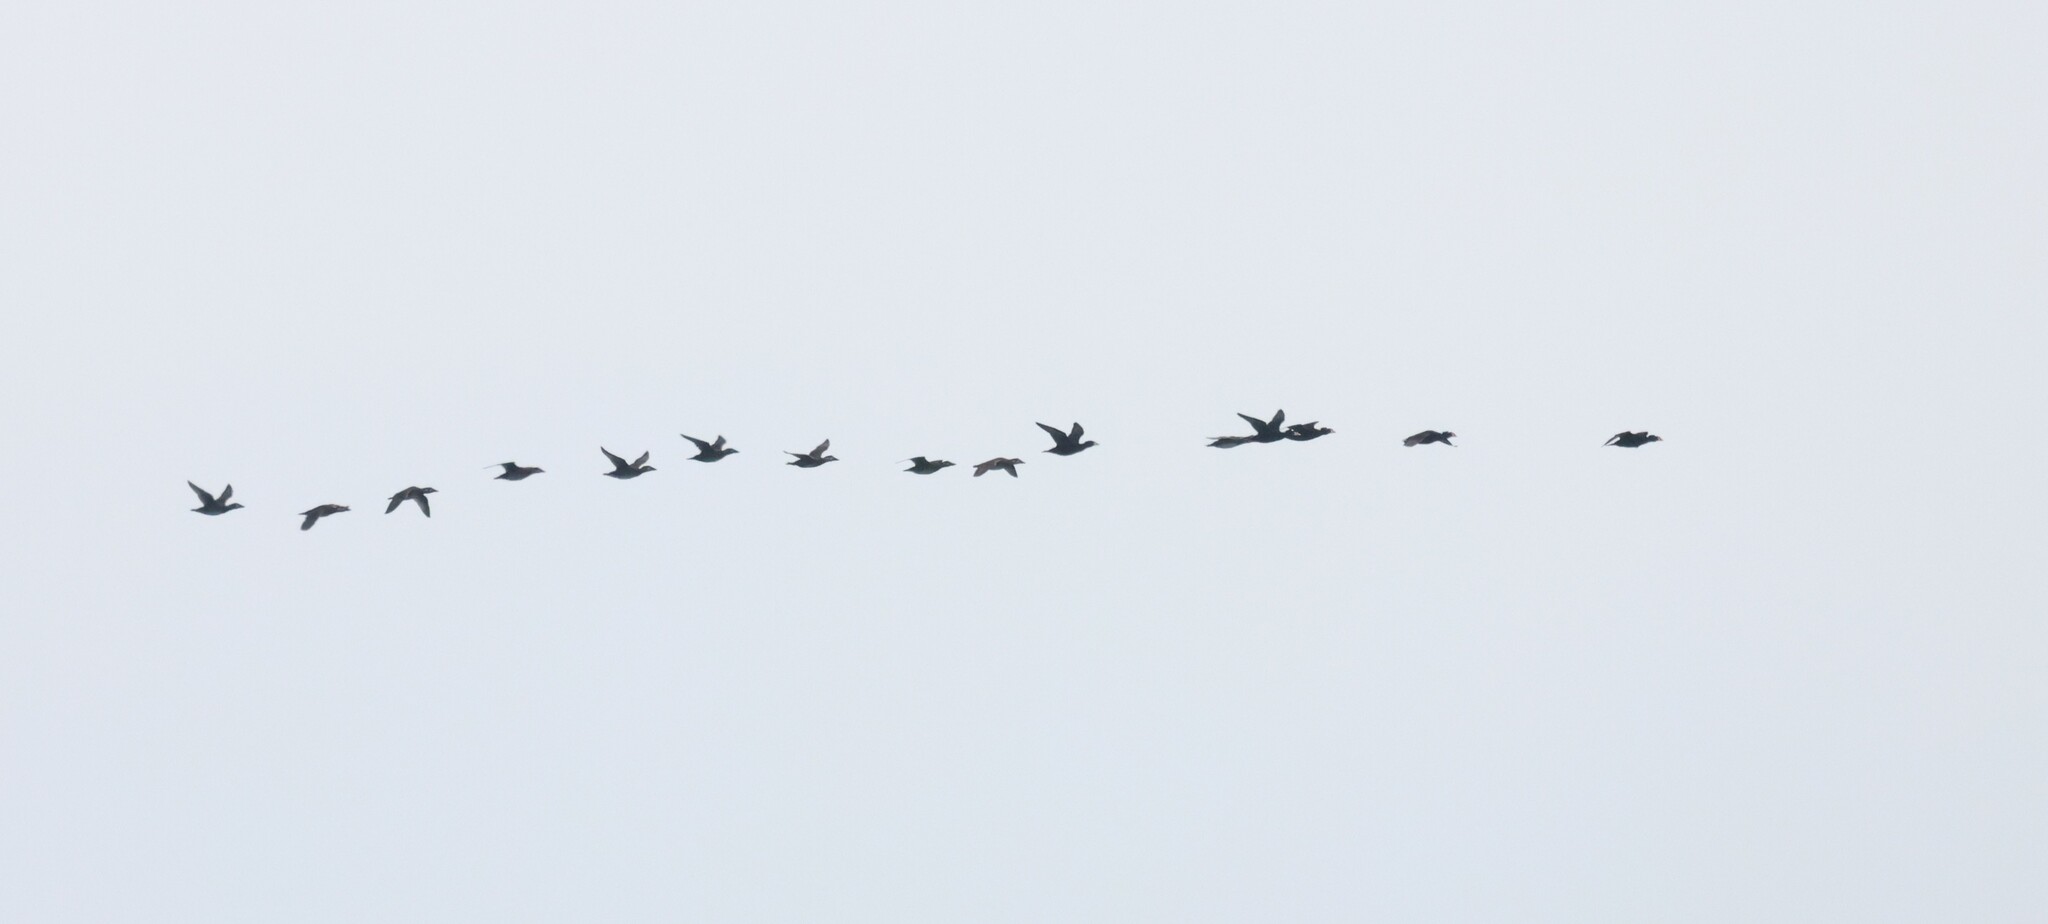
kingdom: Animalia
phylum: Chordata
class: Aves
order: Anseriformes
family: Anatidae
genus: Melanitta
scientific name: Melanitta perspicillata
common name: Surf scoter
